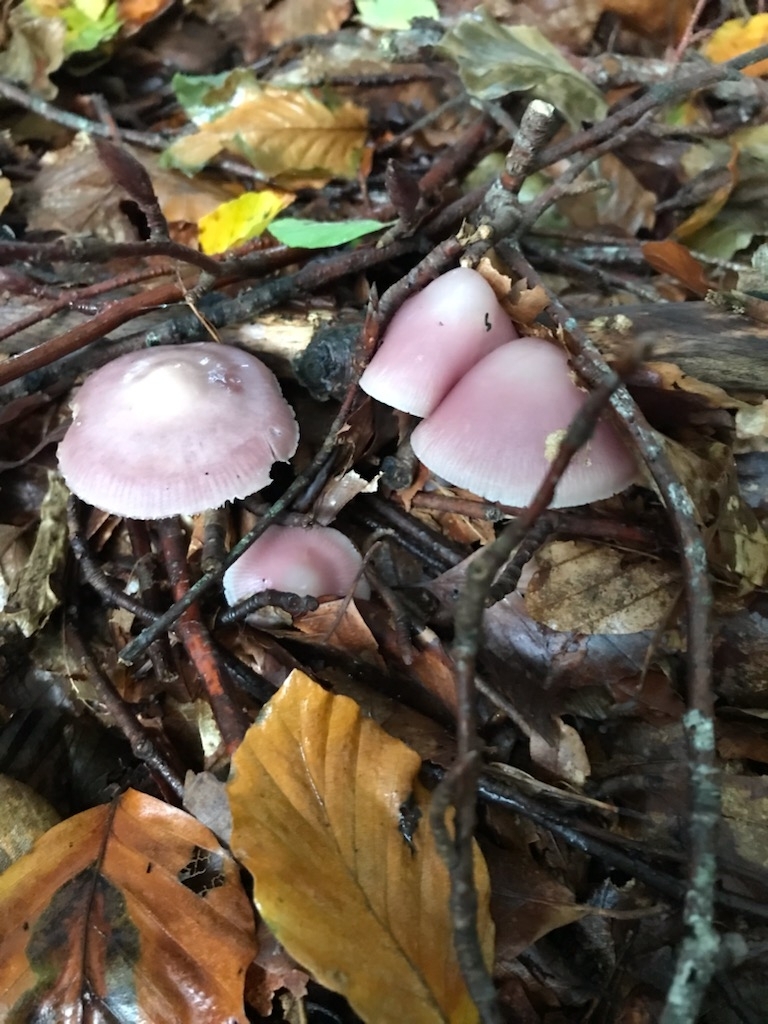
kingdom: Fungi
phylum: Basidiomycota
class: Agaricomycetes
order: Agaricales
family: Mycenaceae
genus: Mycena
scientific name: Mycena rosea
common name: Rosy bonnet
